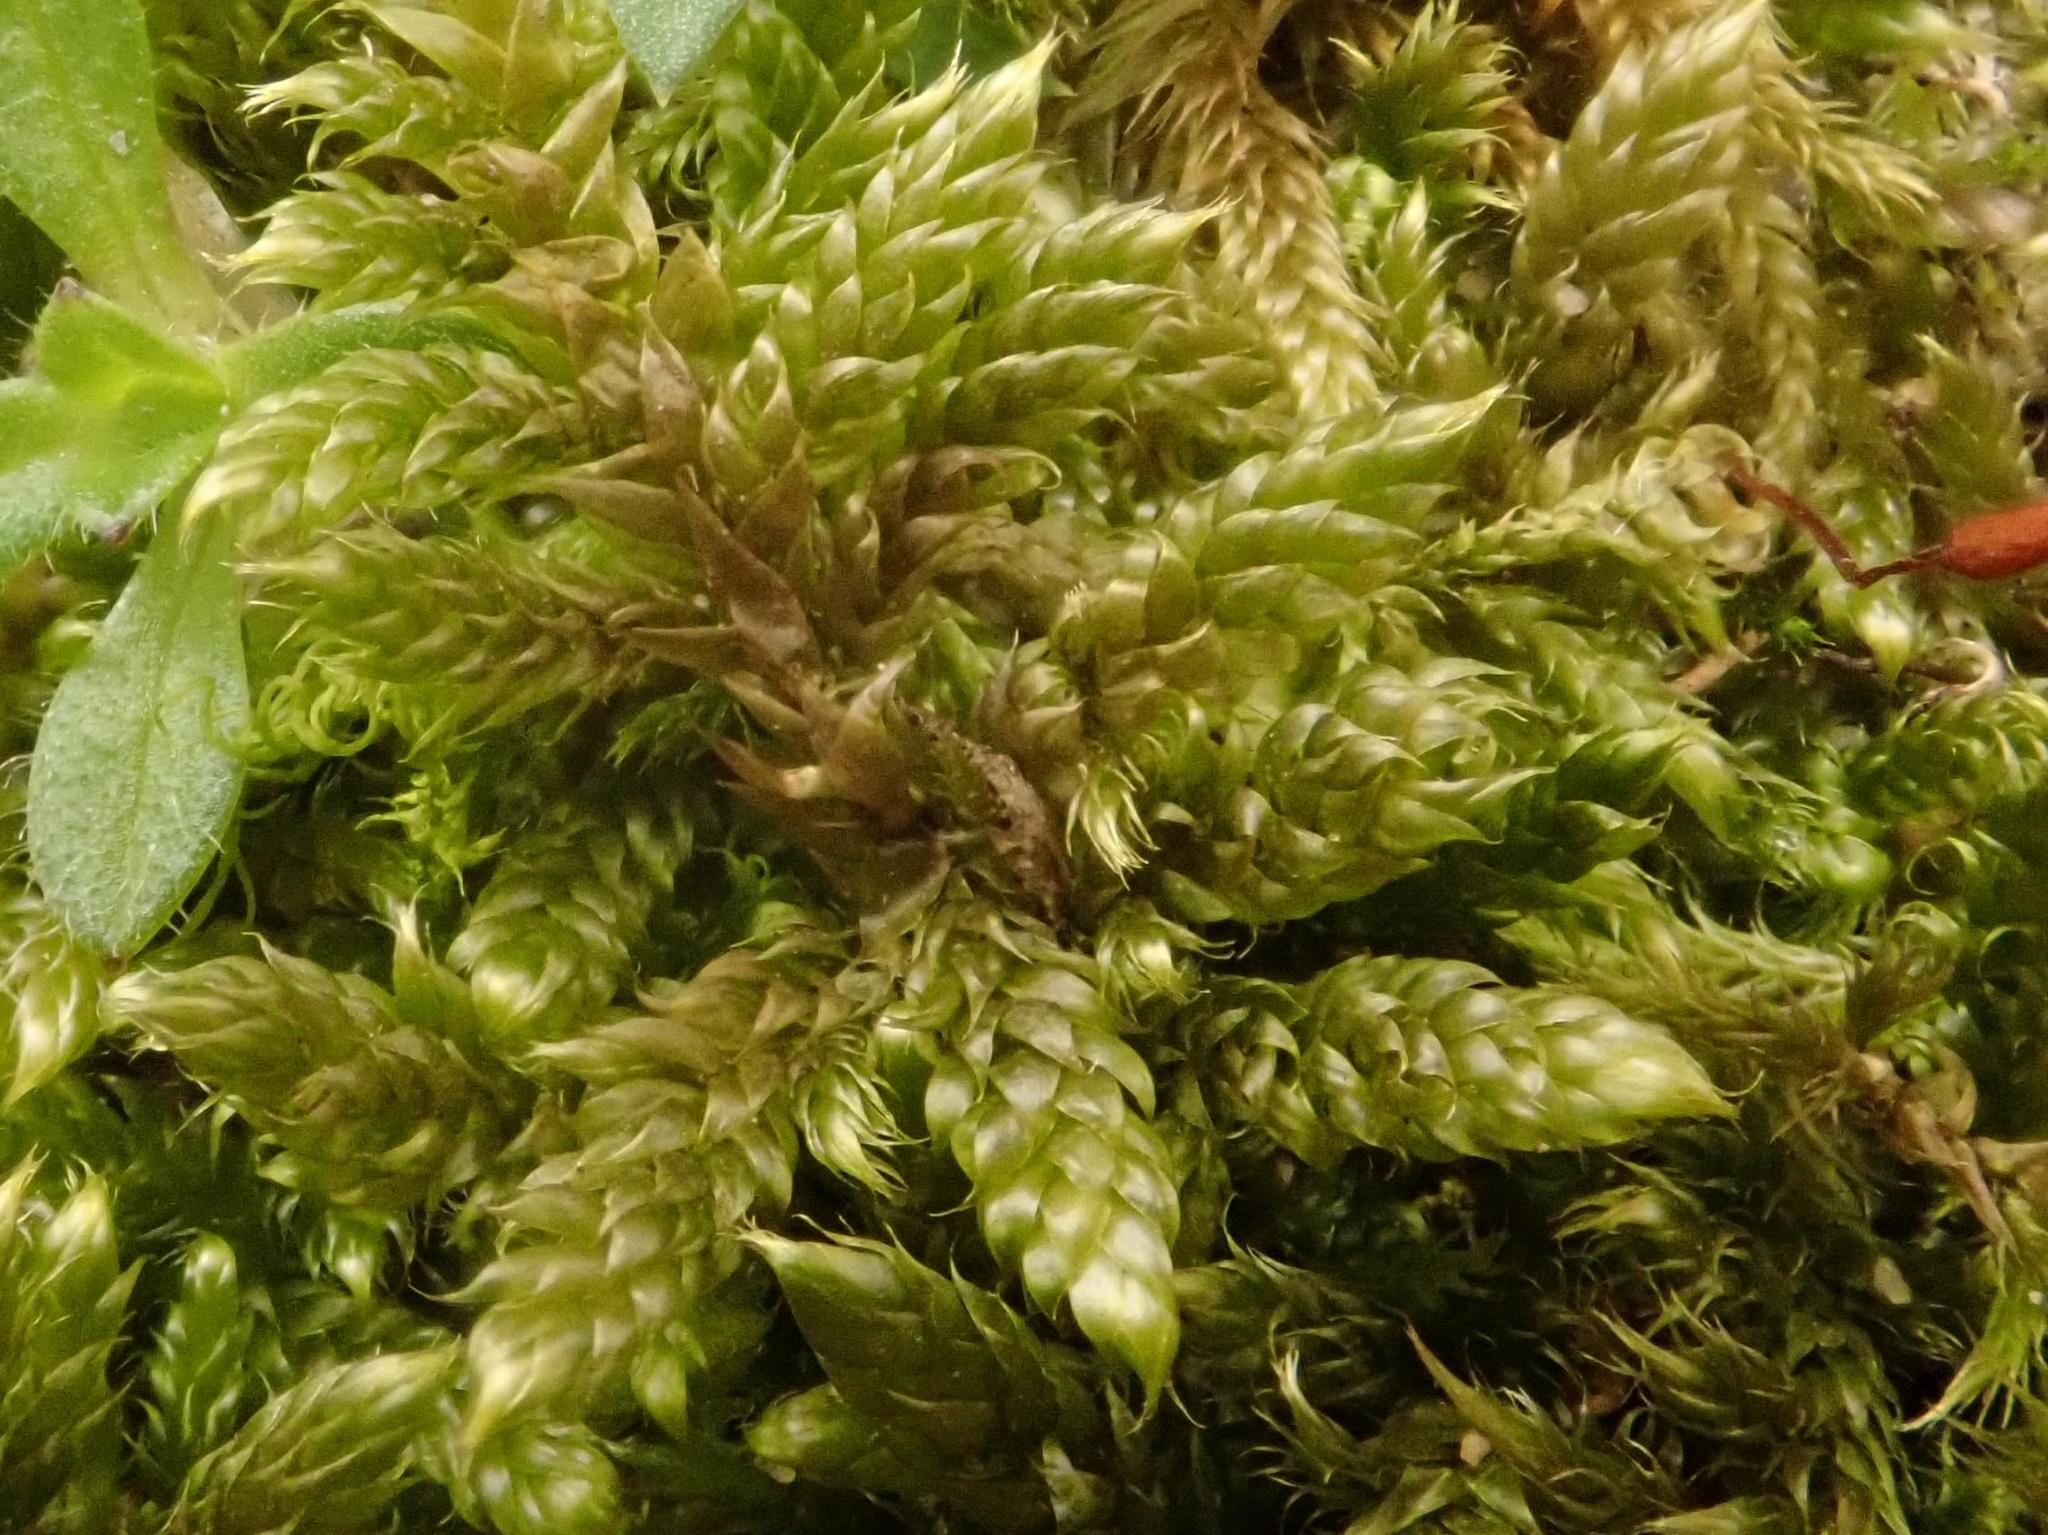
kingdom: Plantae
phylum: Bryophyta
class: Bryopsida
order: Hypnales
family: Hypnaceae
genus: Hypnum
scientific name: Hypnum cupressiforme
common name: Cypress-leaved plait-moss
